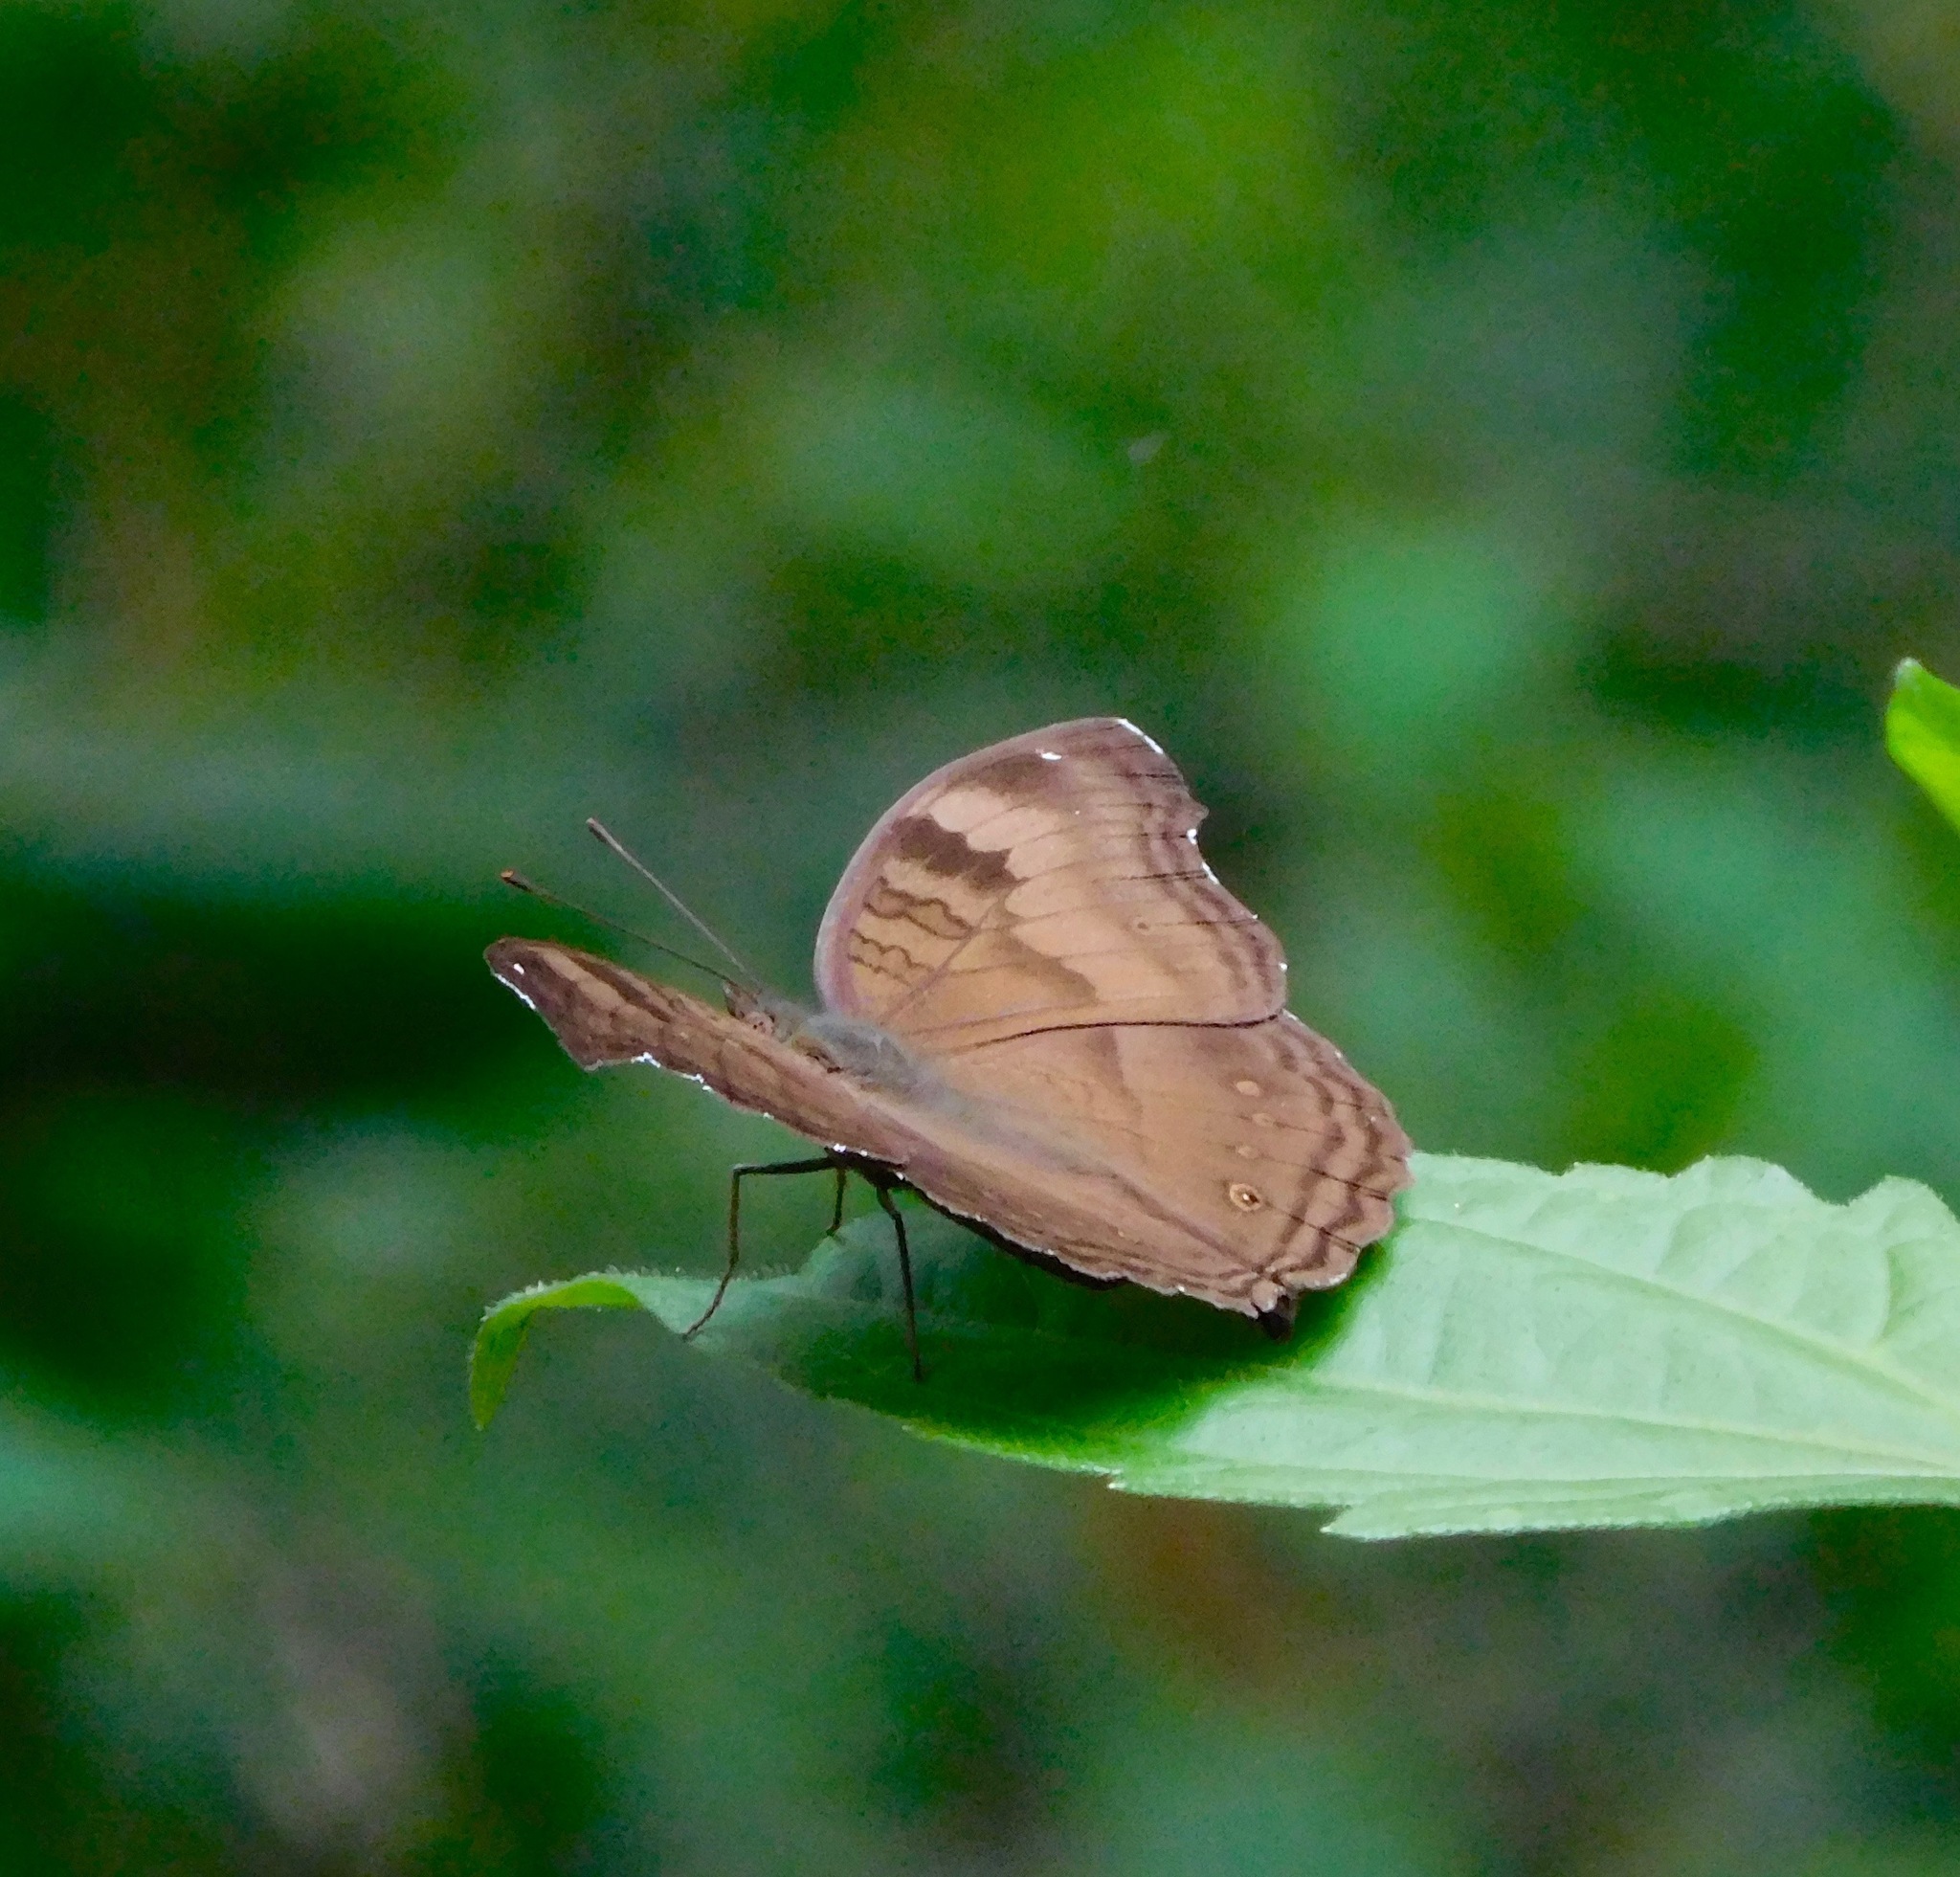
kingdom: Animalia
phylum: Arthropoda
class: Insecta
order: Lepidoptera
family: Nymphalidae
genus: Junonia
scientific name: Junonia iphita
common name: Chocolate pansy
